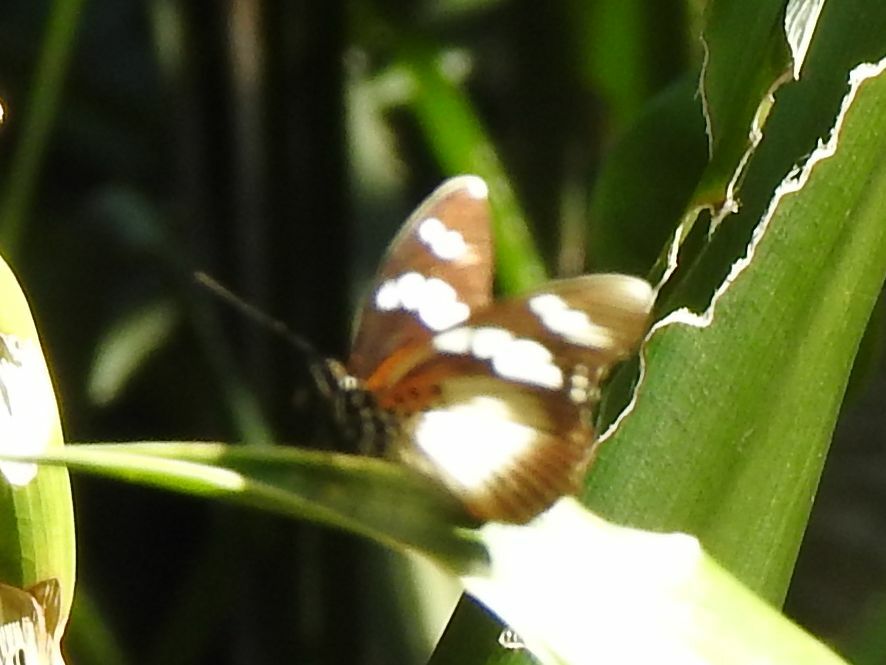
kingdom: Animalia
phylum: Arthropoda
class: Insecta
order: Lepidoptera
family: Nymphalidae
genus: Chloropoea
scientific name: Chloropoea lucretia
